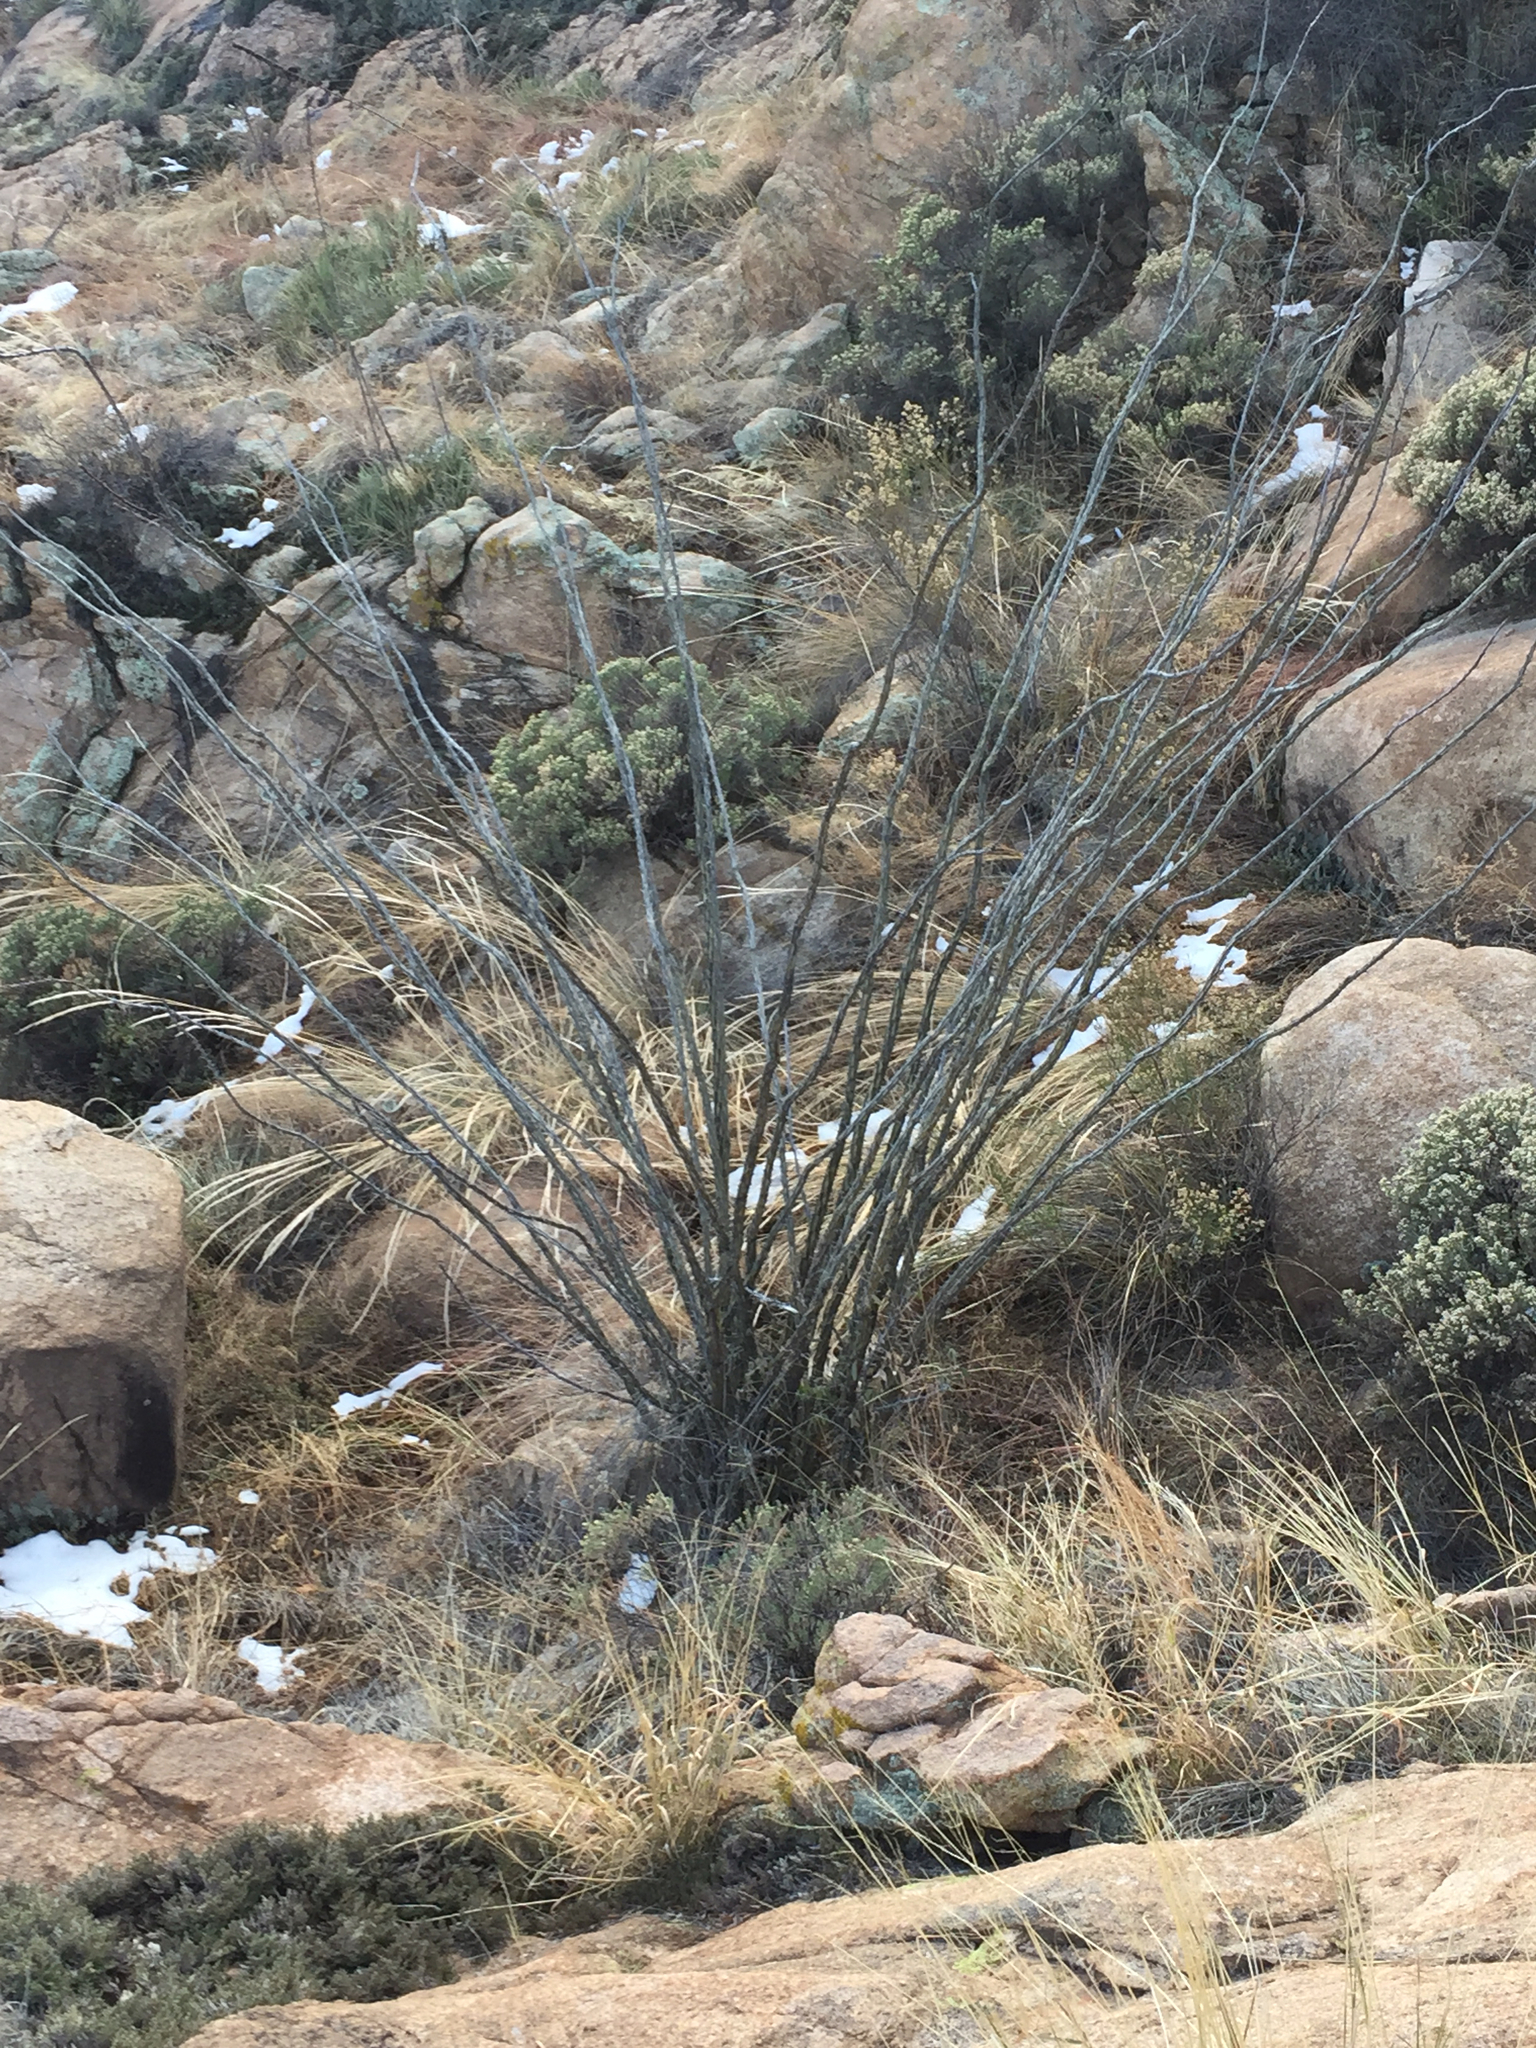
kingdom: Plantae
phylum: Tracheophyta
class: Magnoliopsida
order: Ericales
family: Fouquieriaceae
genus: Fouquieria
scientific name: Fouquieria splendens
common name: Vine-cactus
